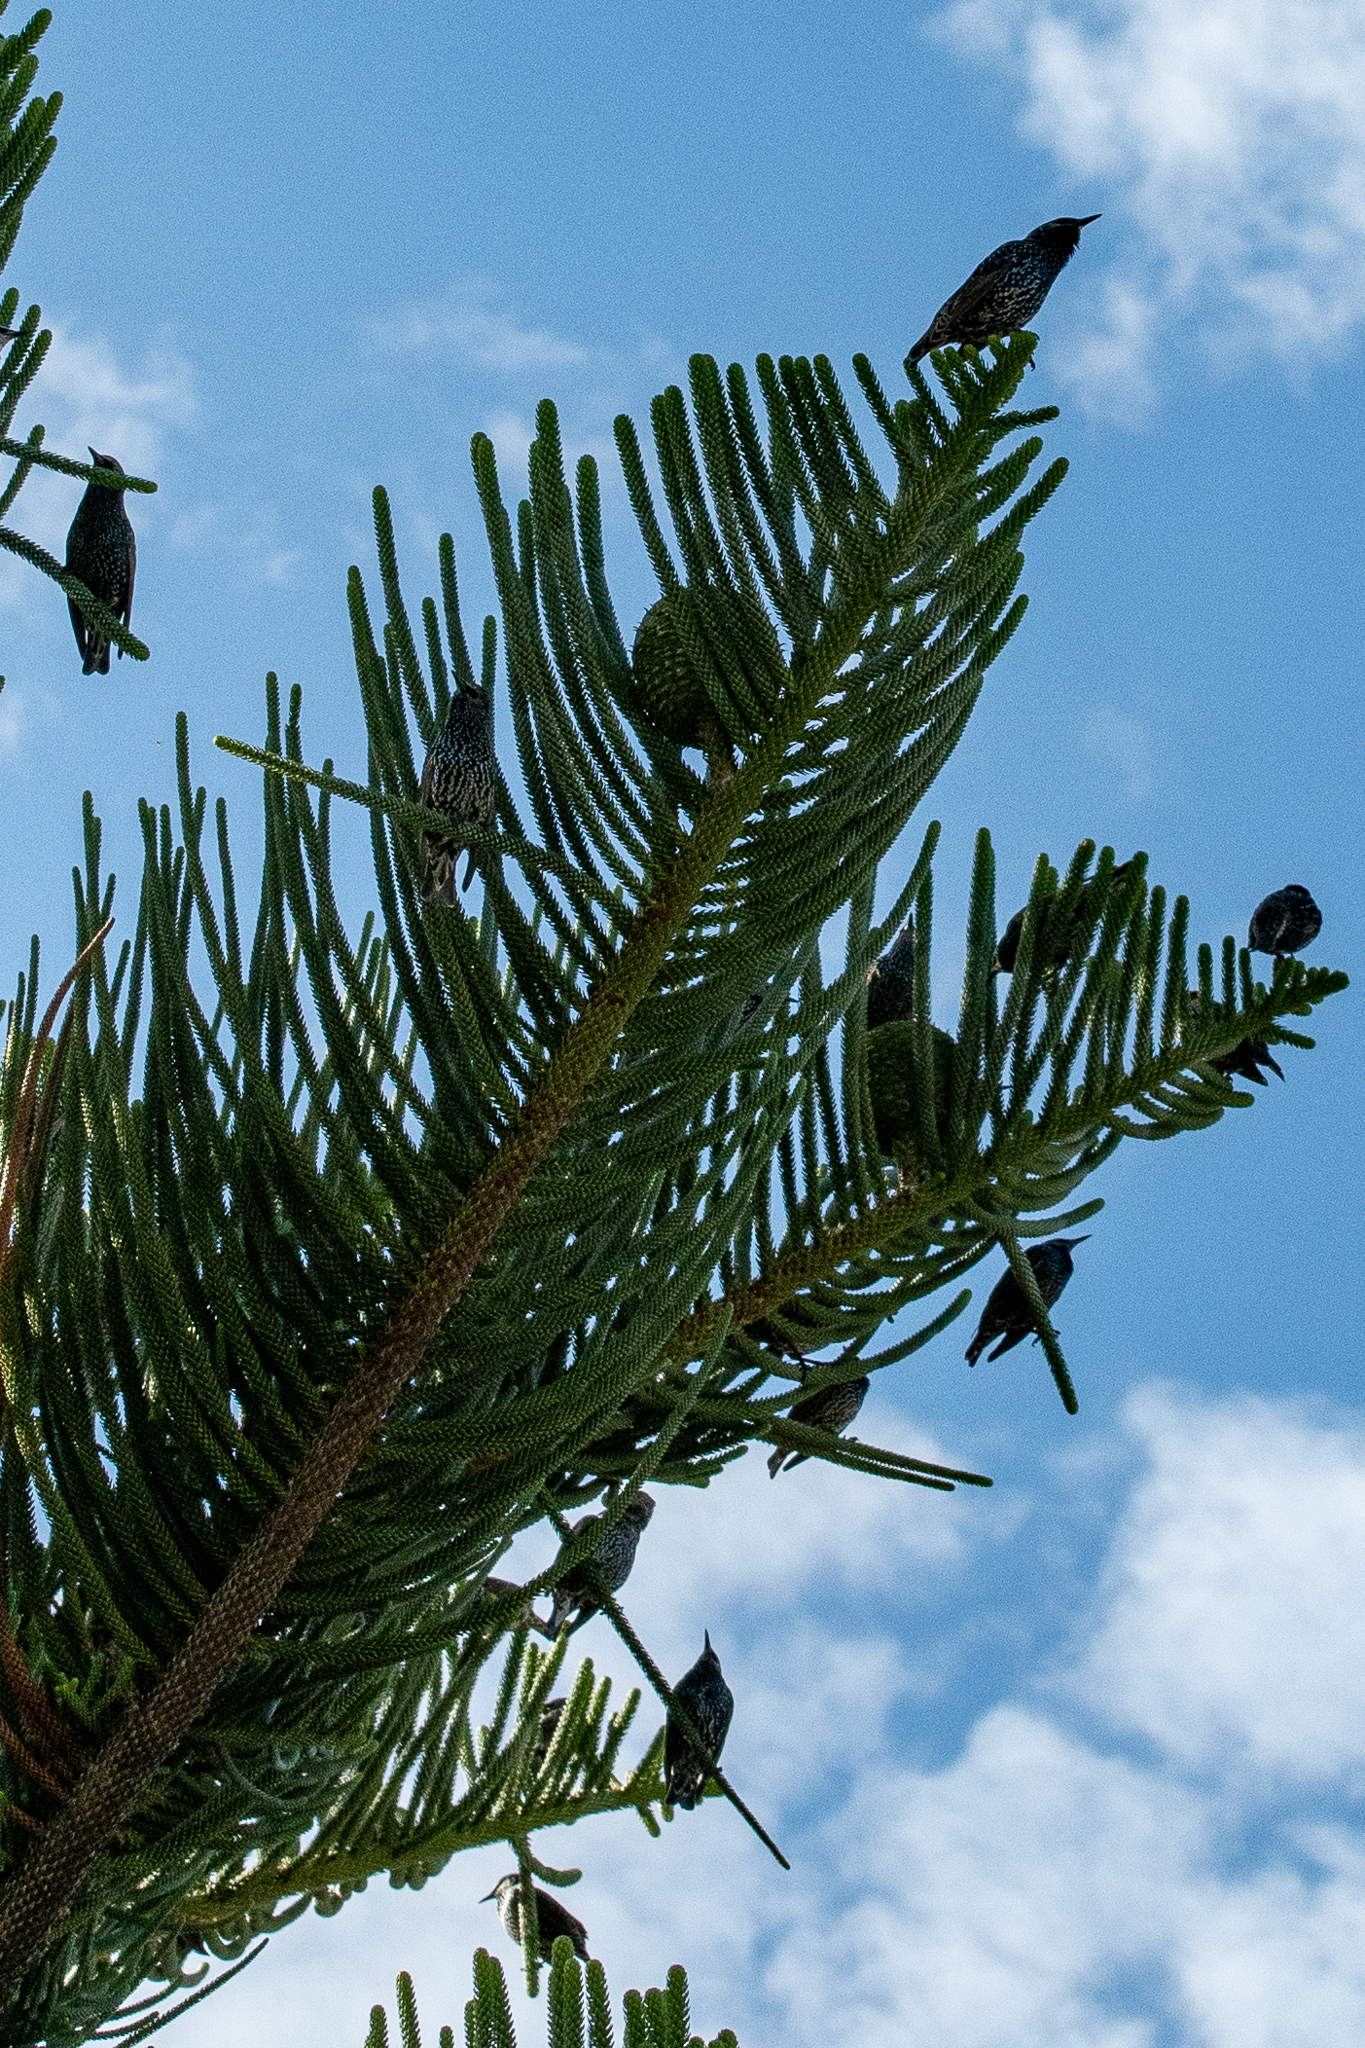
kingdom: Animalia
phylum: Chordata
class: Aves
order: Passeriformes
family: Sturnidae
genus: Sturnus
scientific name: Sturnus vulgaris
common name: Common starling
